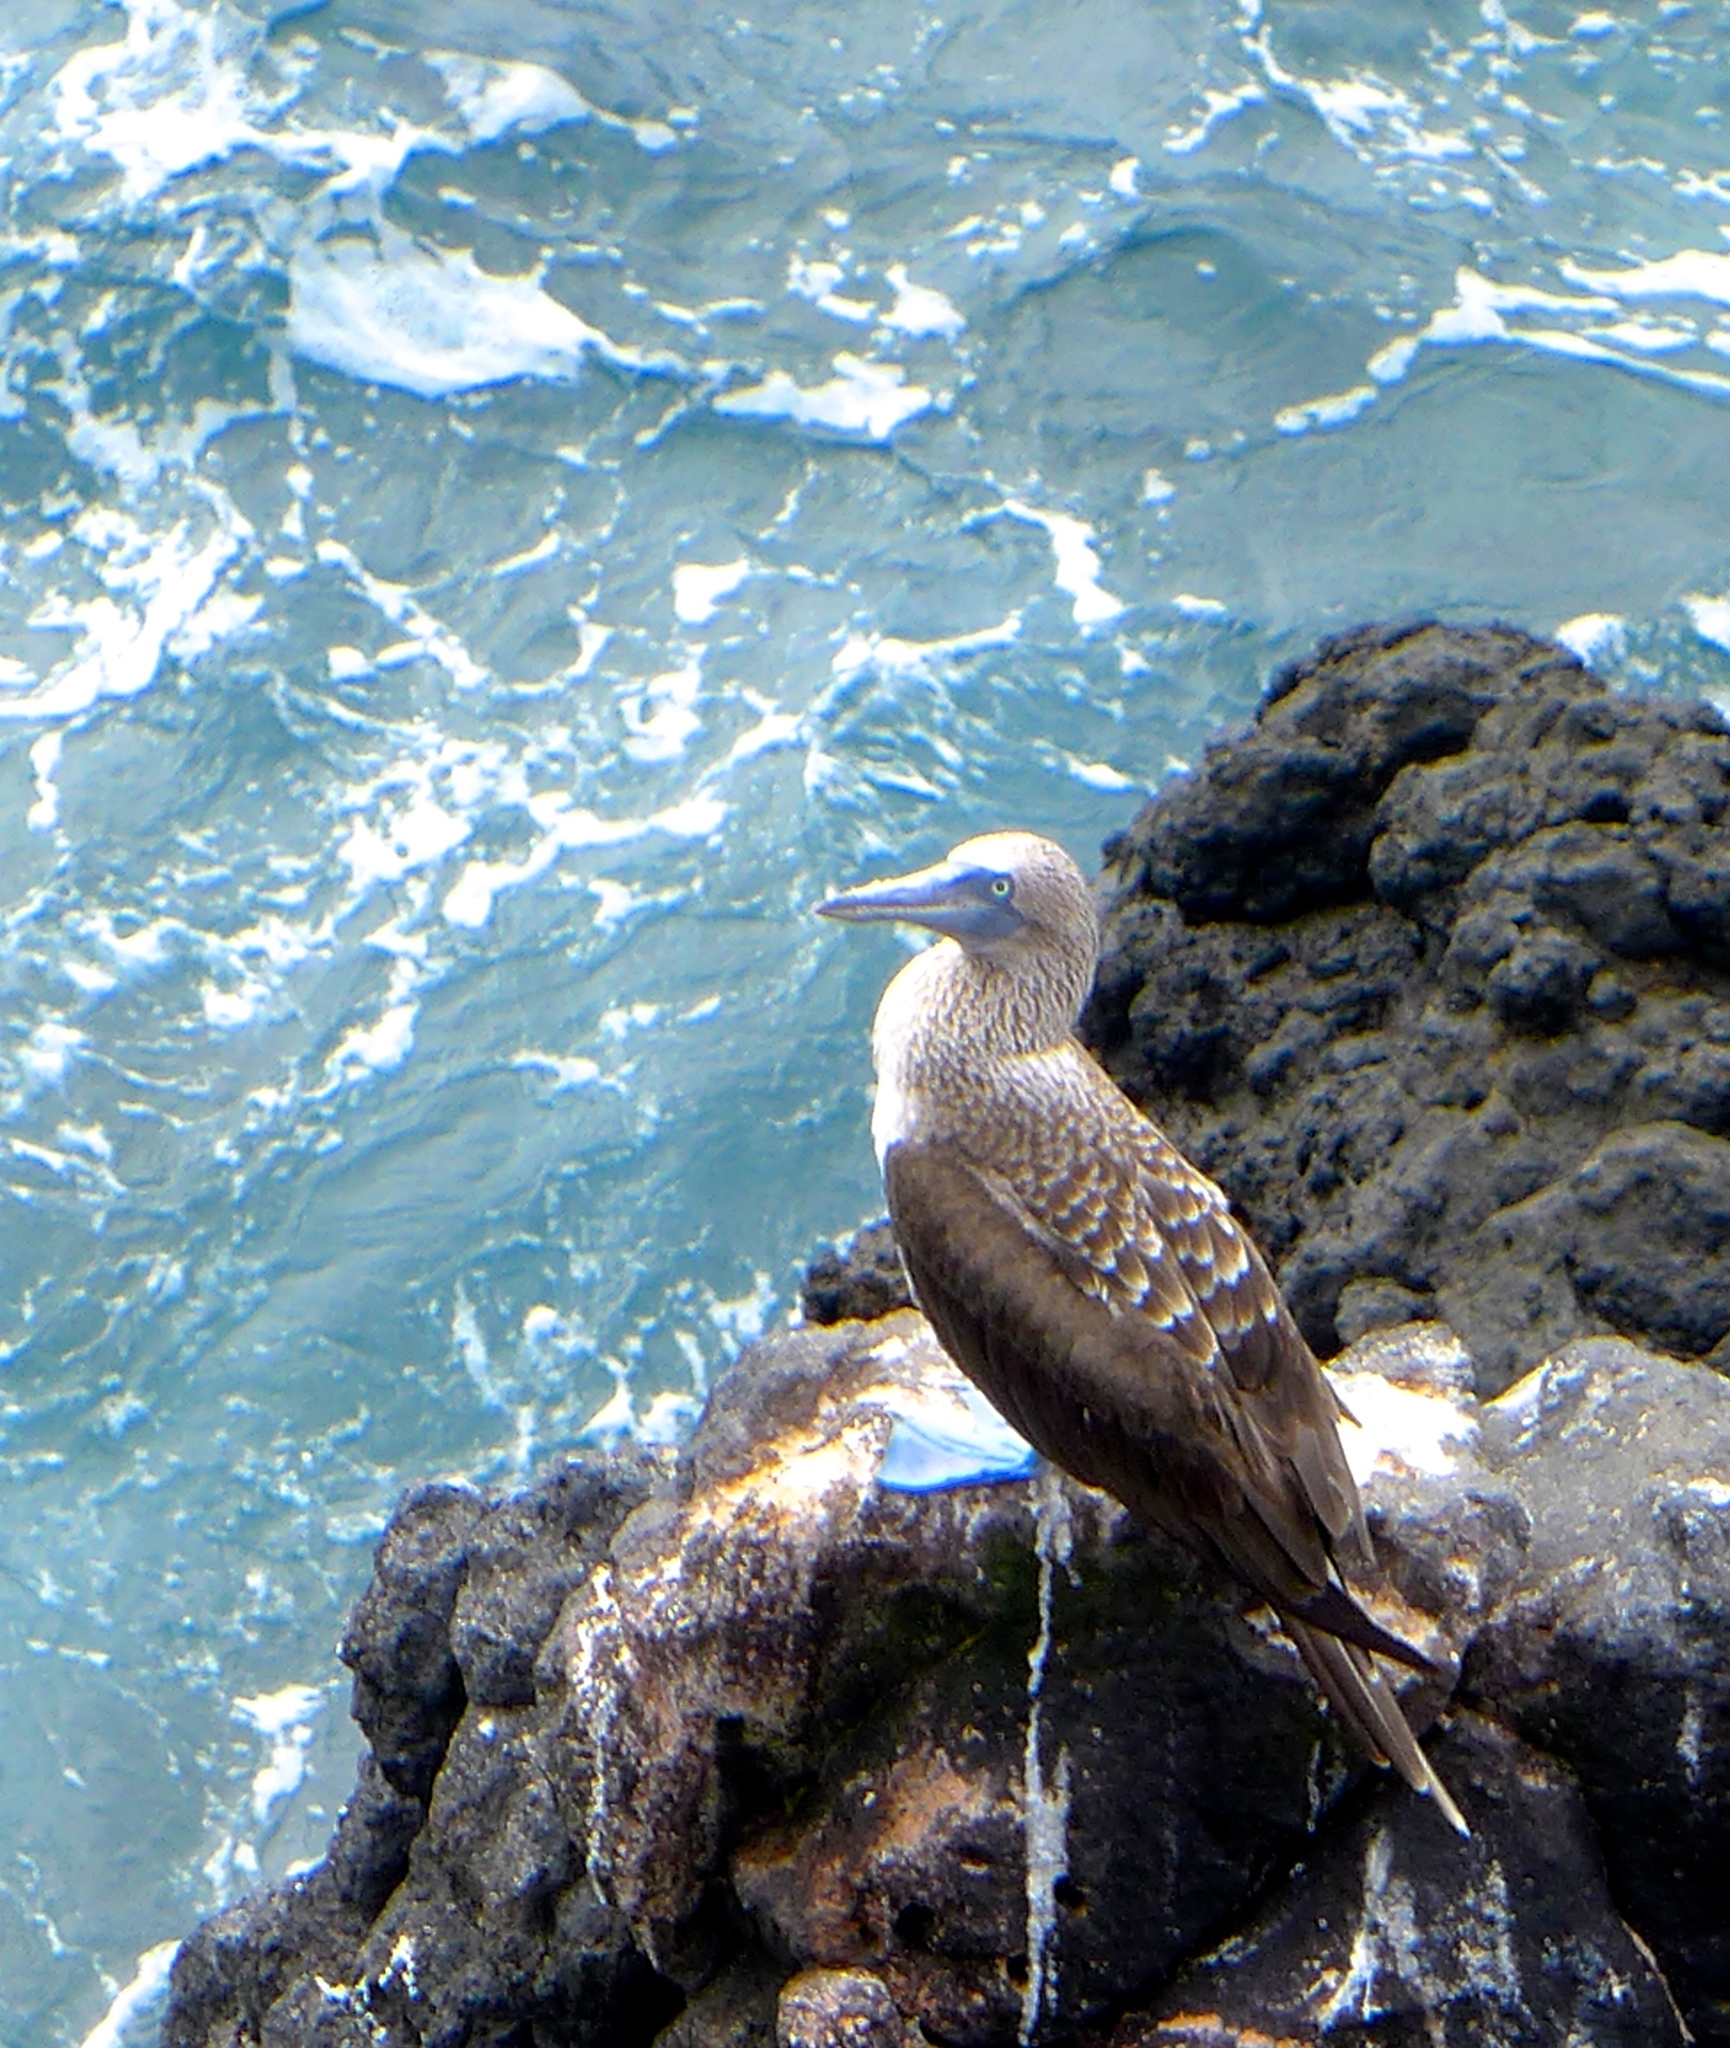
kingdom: Animalia
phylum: Chordata
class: Aves
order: Suliformes
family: Sulidae
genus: Sula
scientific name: Sula nebouxii
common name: Blue-footed booby
